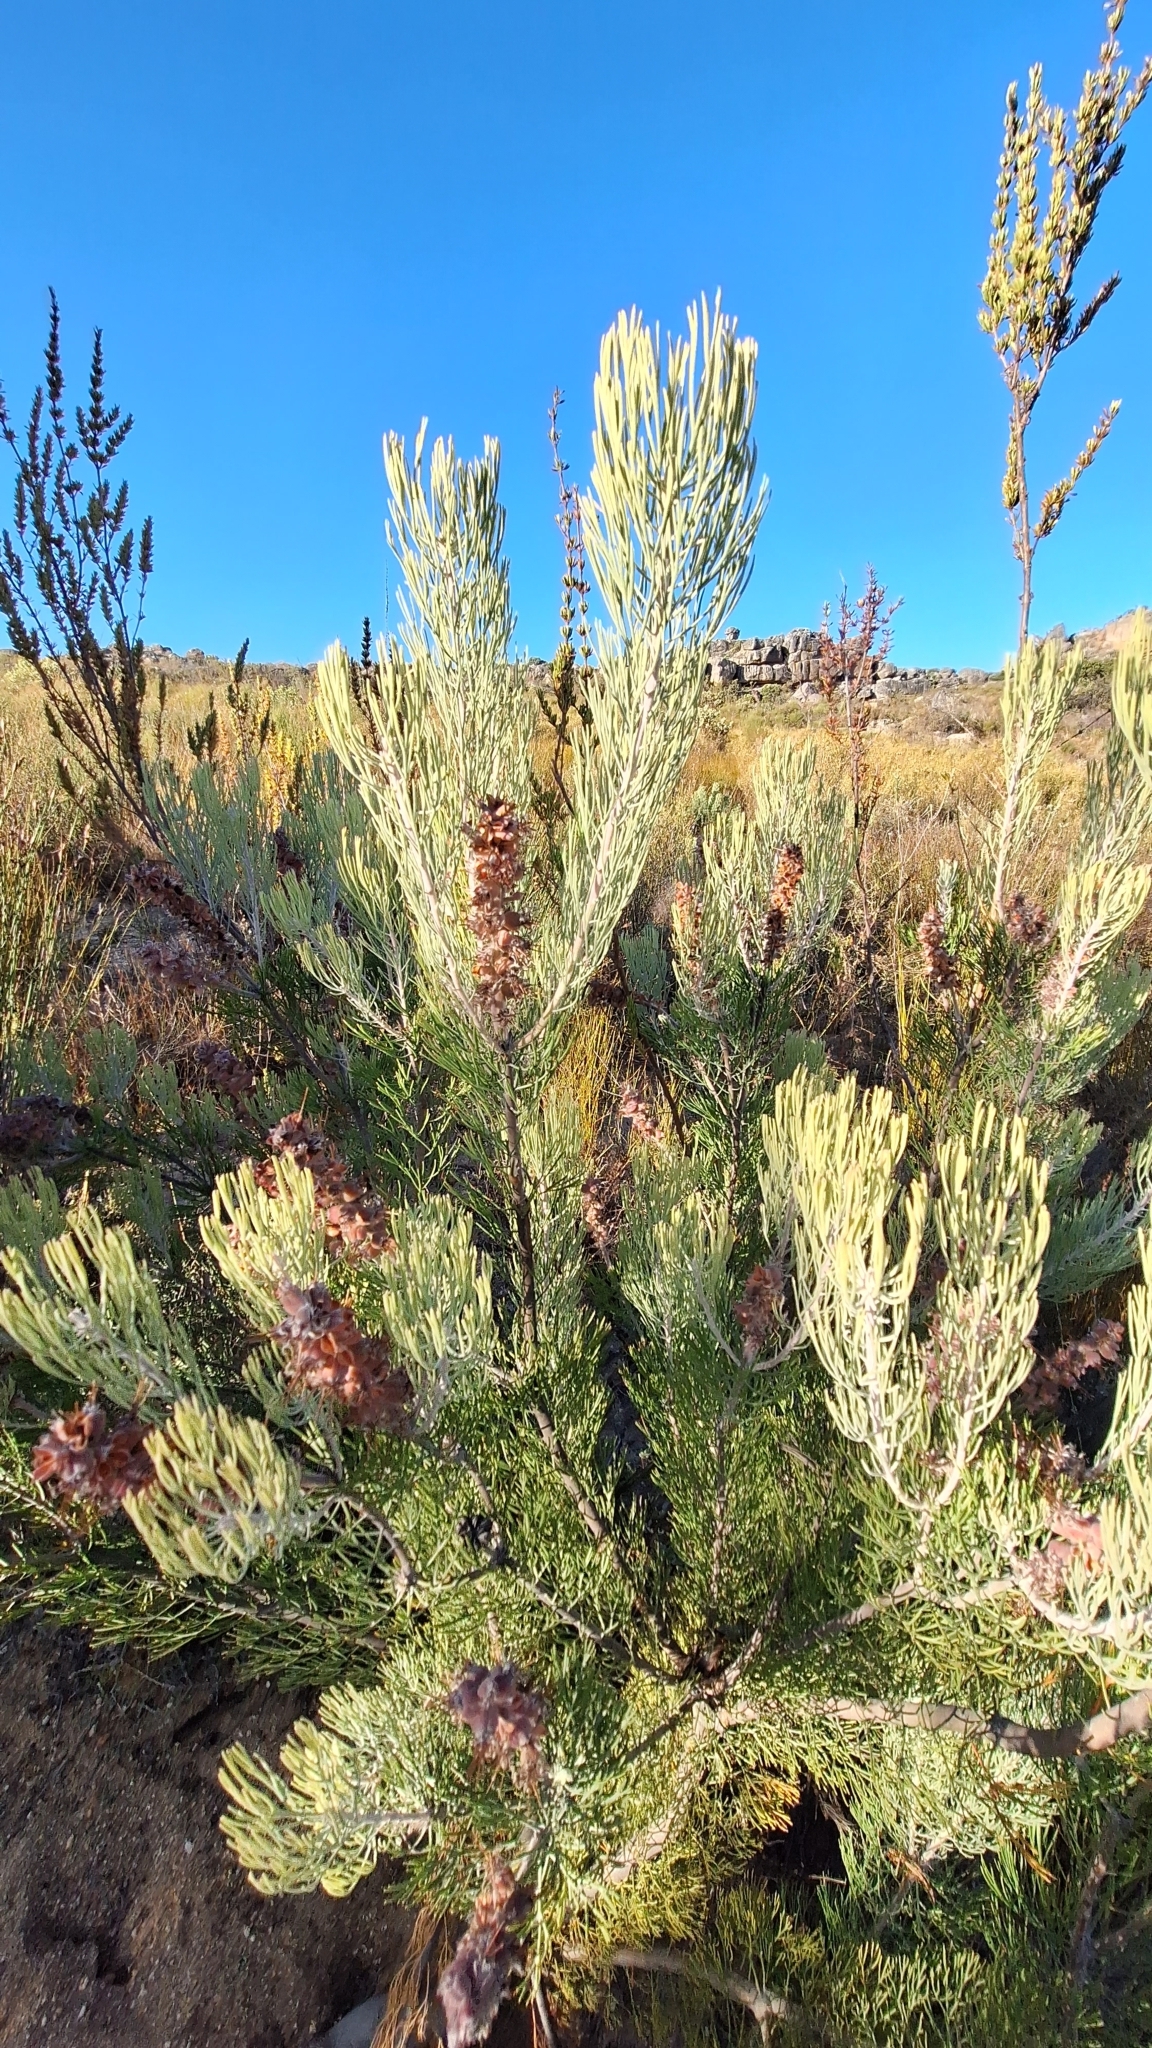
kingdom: Plantae
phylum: Tracheophyta
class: Magnoliopsida
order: Proteales
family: Proteaceae
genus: Paranomus
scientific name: Paranomus bracteolaris
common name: Bokkeveld tree sceptre
